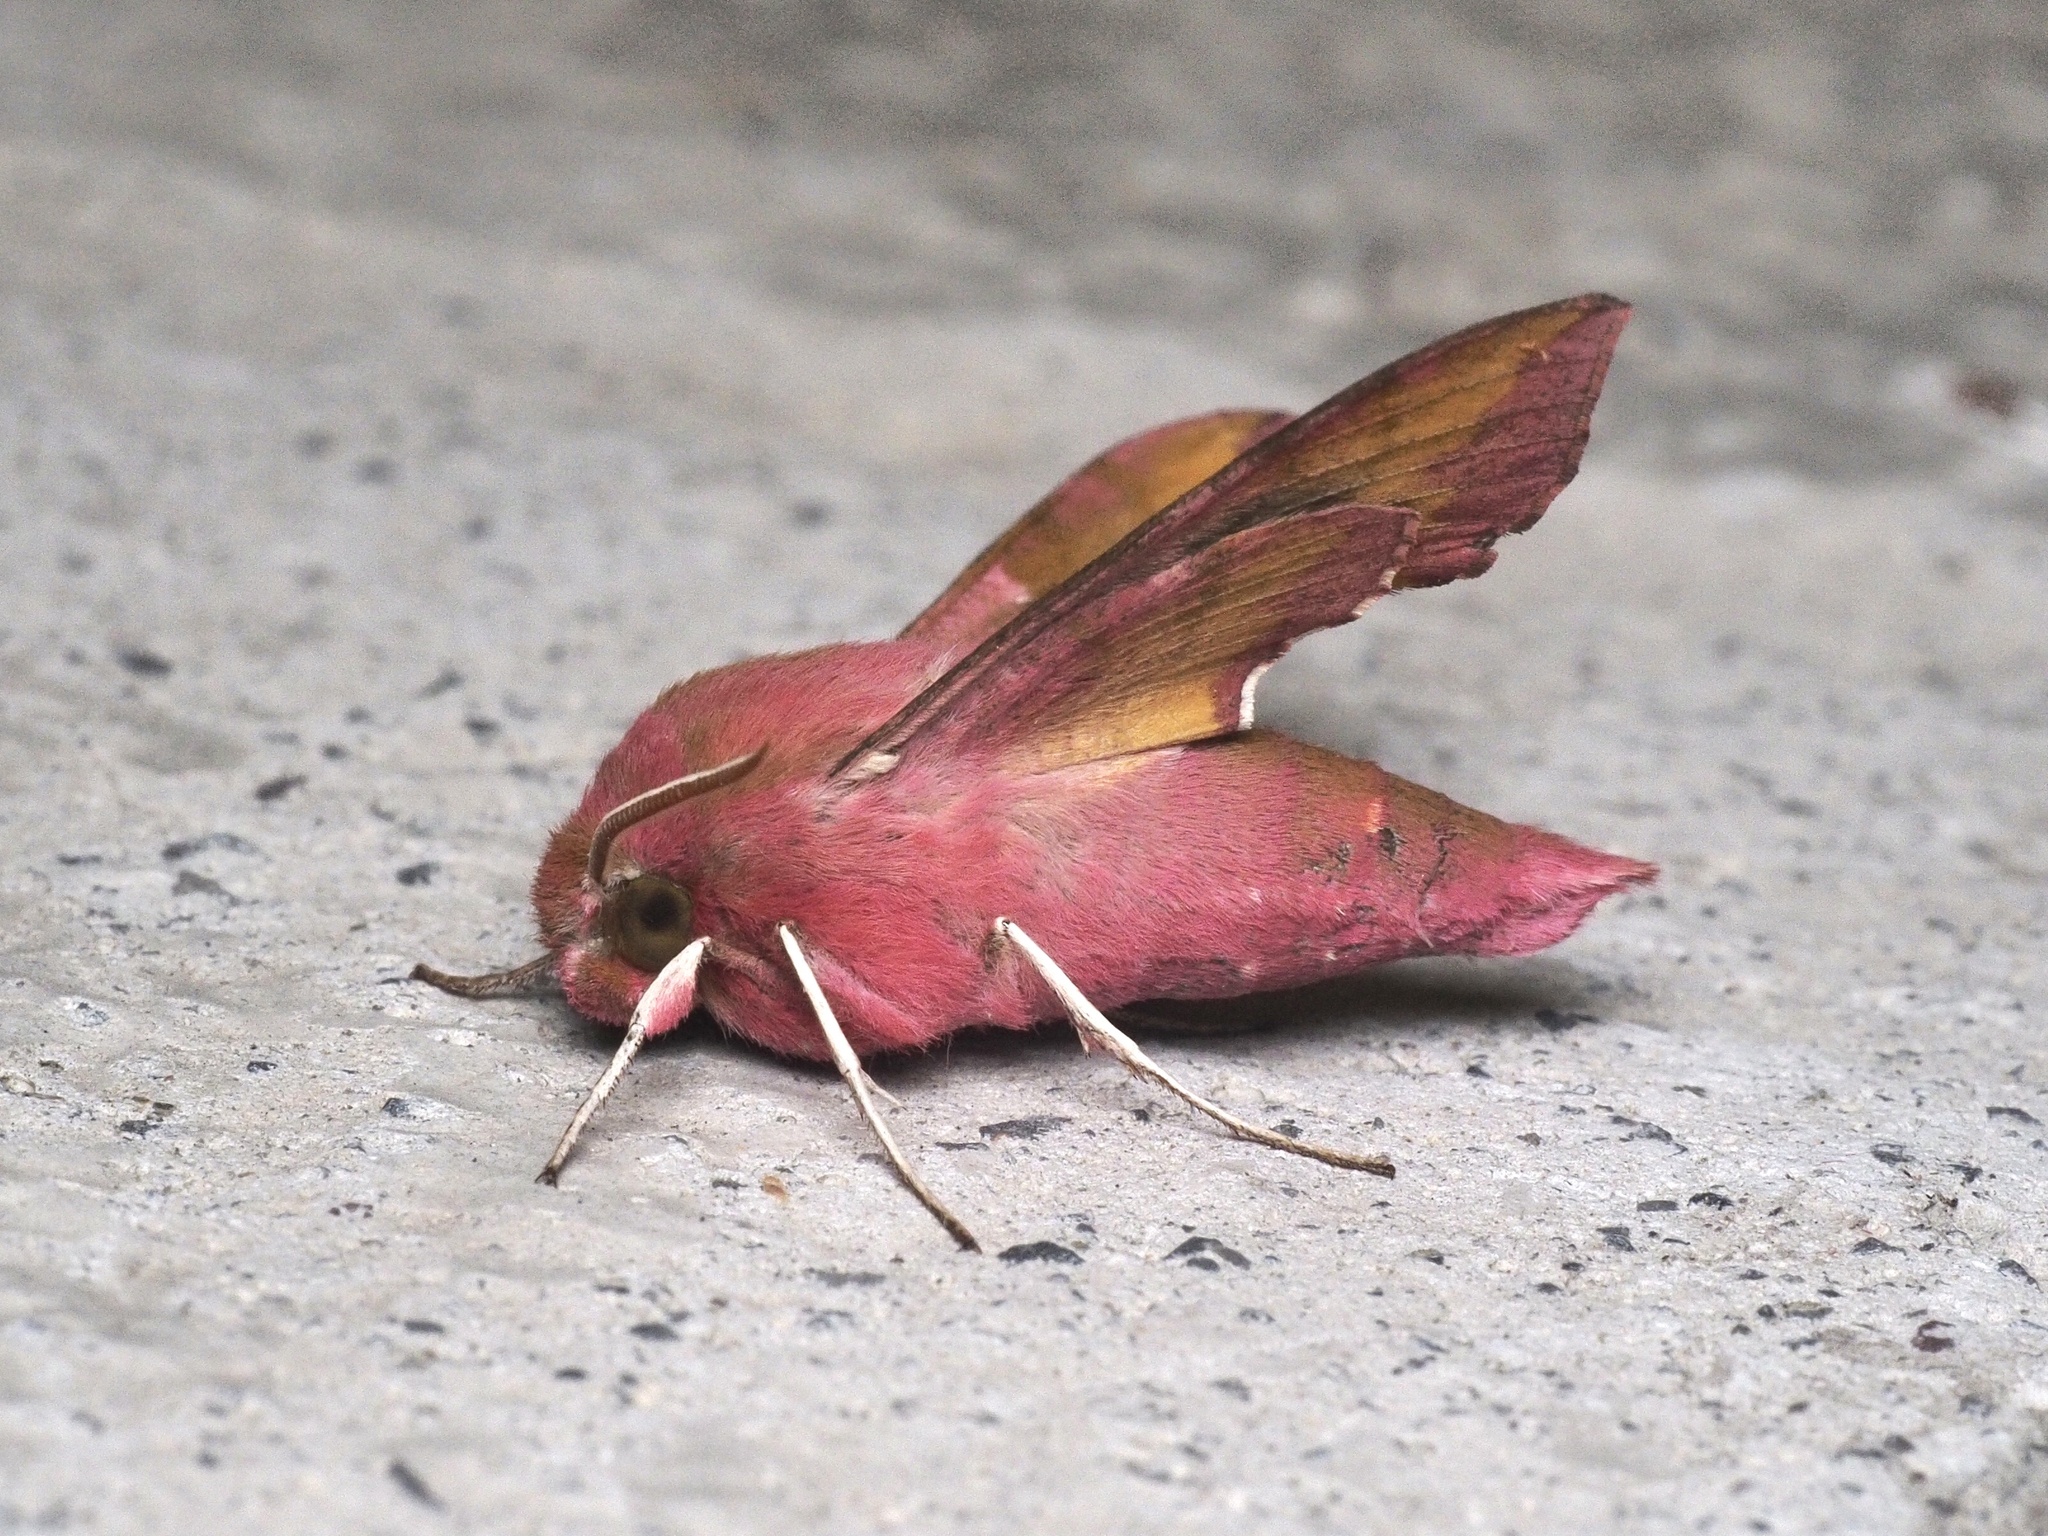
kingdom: Animalia
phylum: Arthropoda
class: Insecta
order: Lepidoptera
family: Sphingidae
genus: Deilephila
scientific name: Deilephila porcellus
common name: Small elephant hawk-moth
